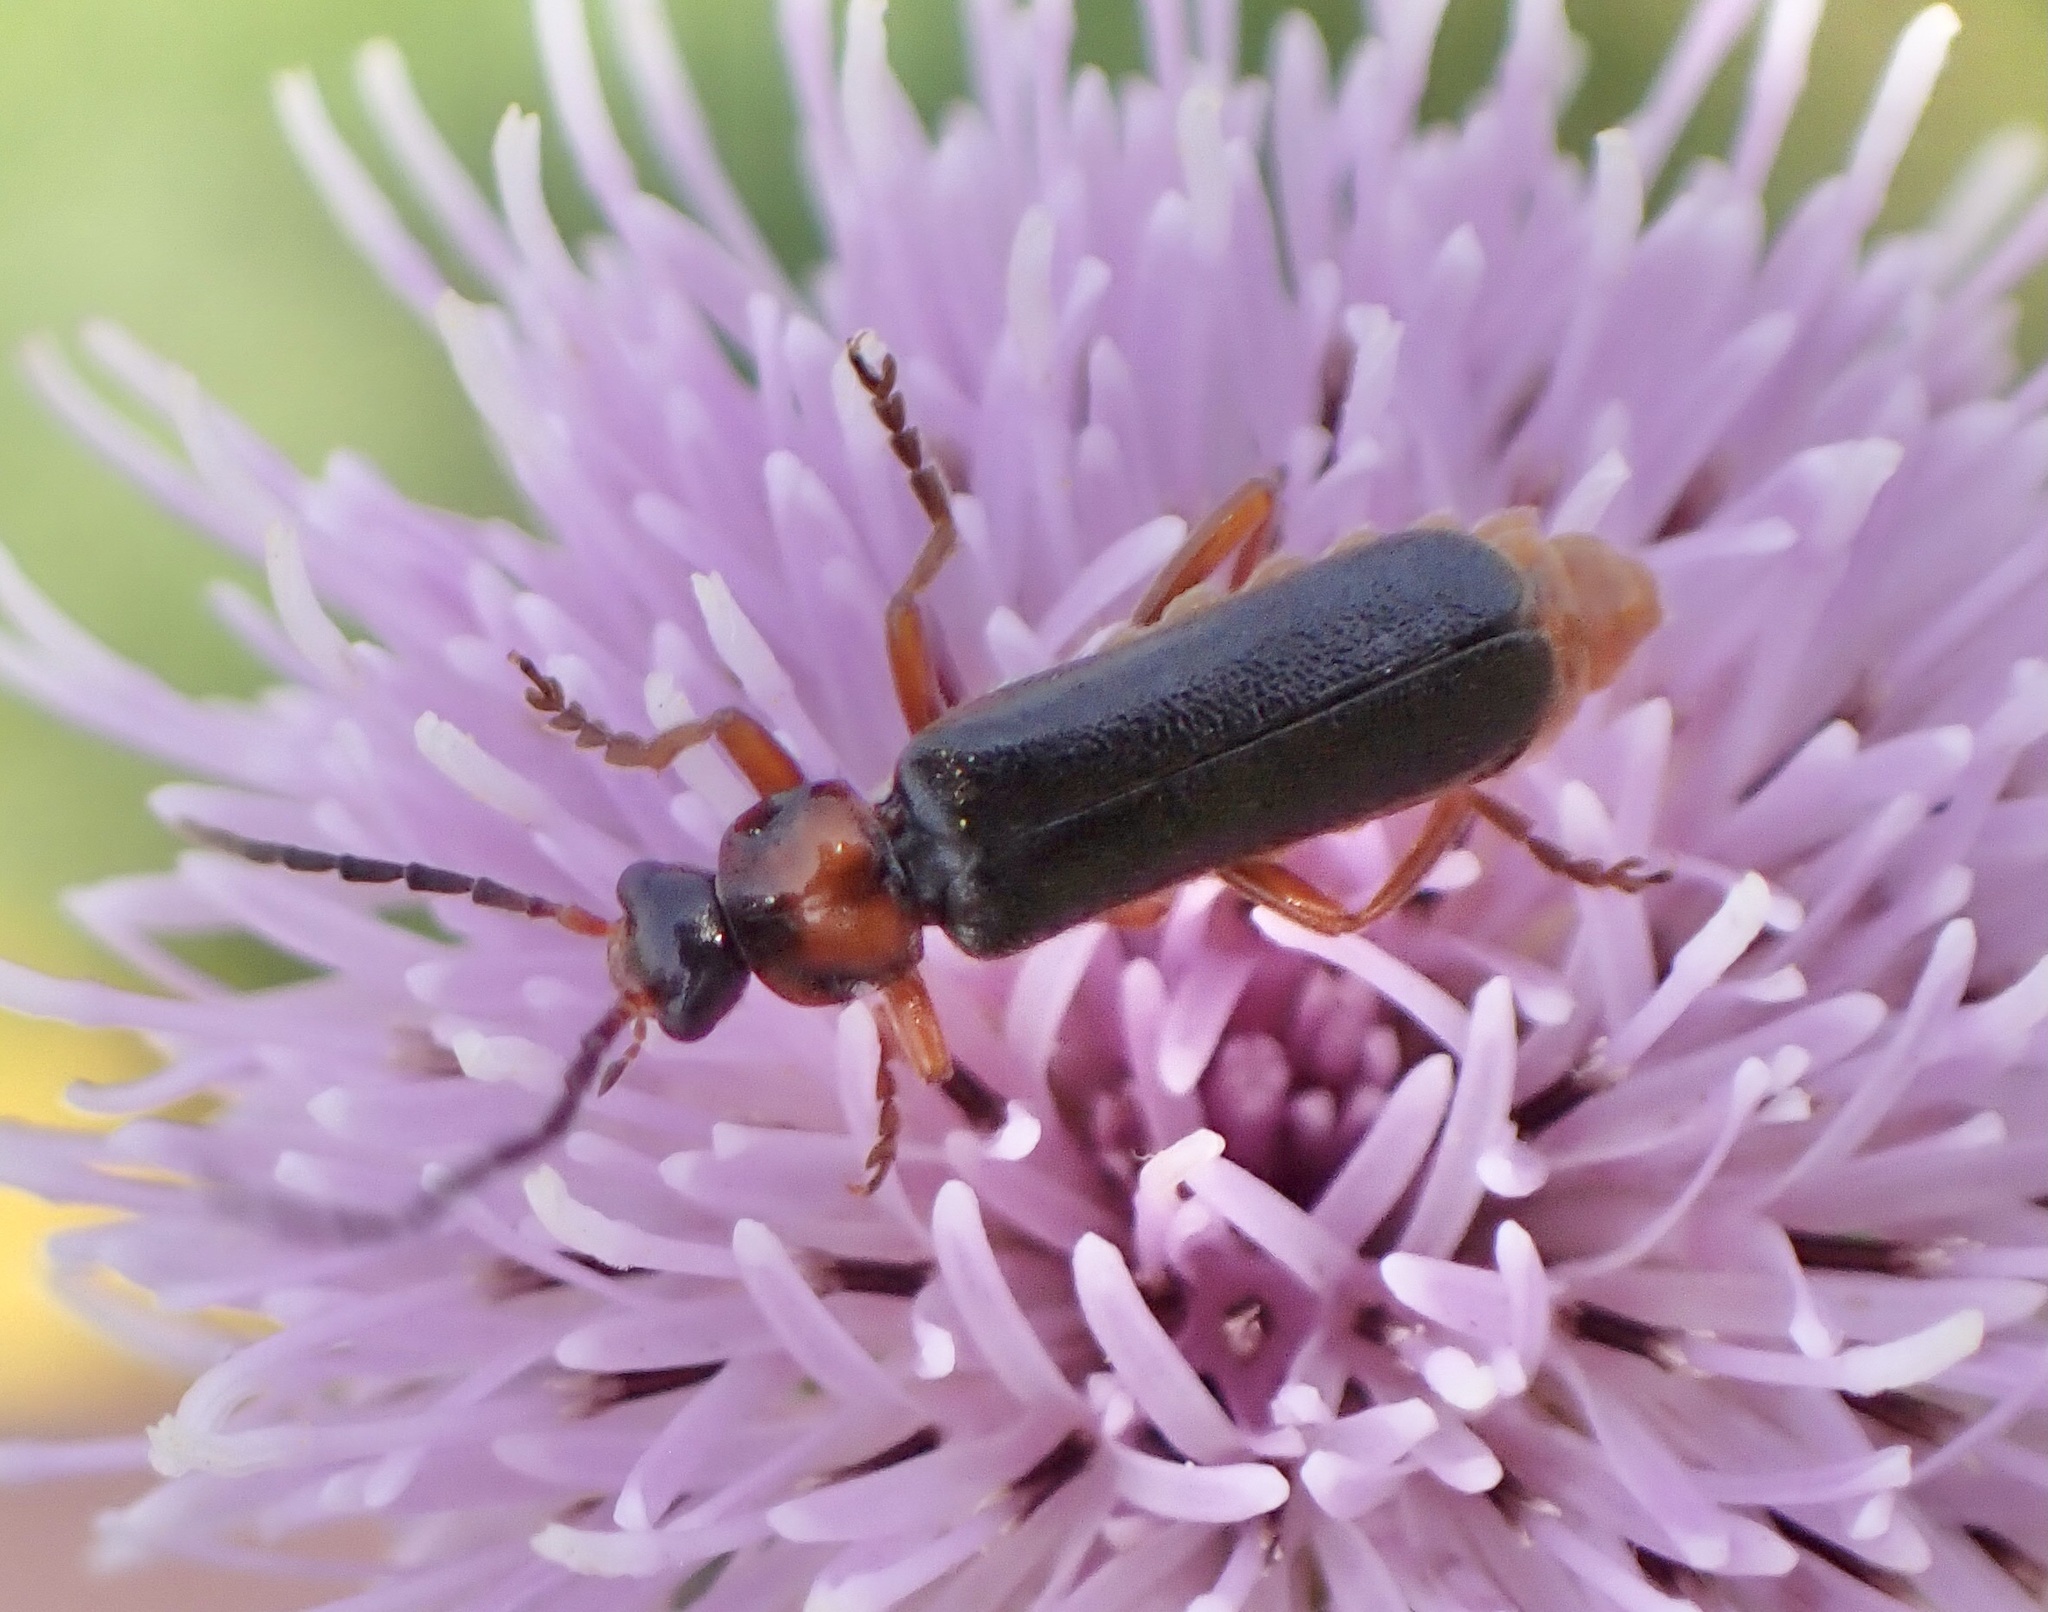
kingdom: Animalia
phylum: Arthropoda
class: Insecta
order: Coleoptera
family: Cantharidae
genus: Cantharis
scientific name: Cantharis flavilabris
